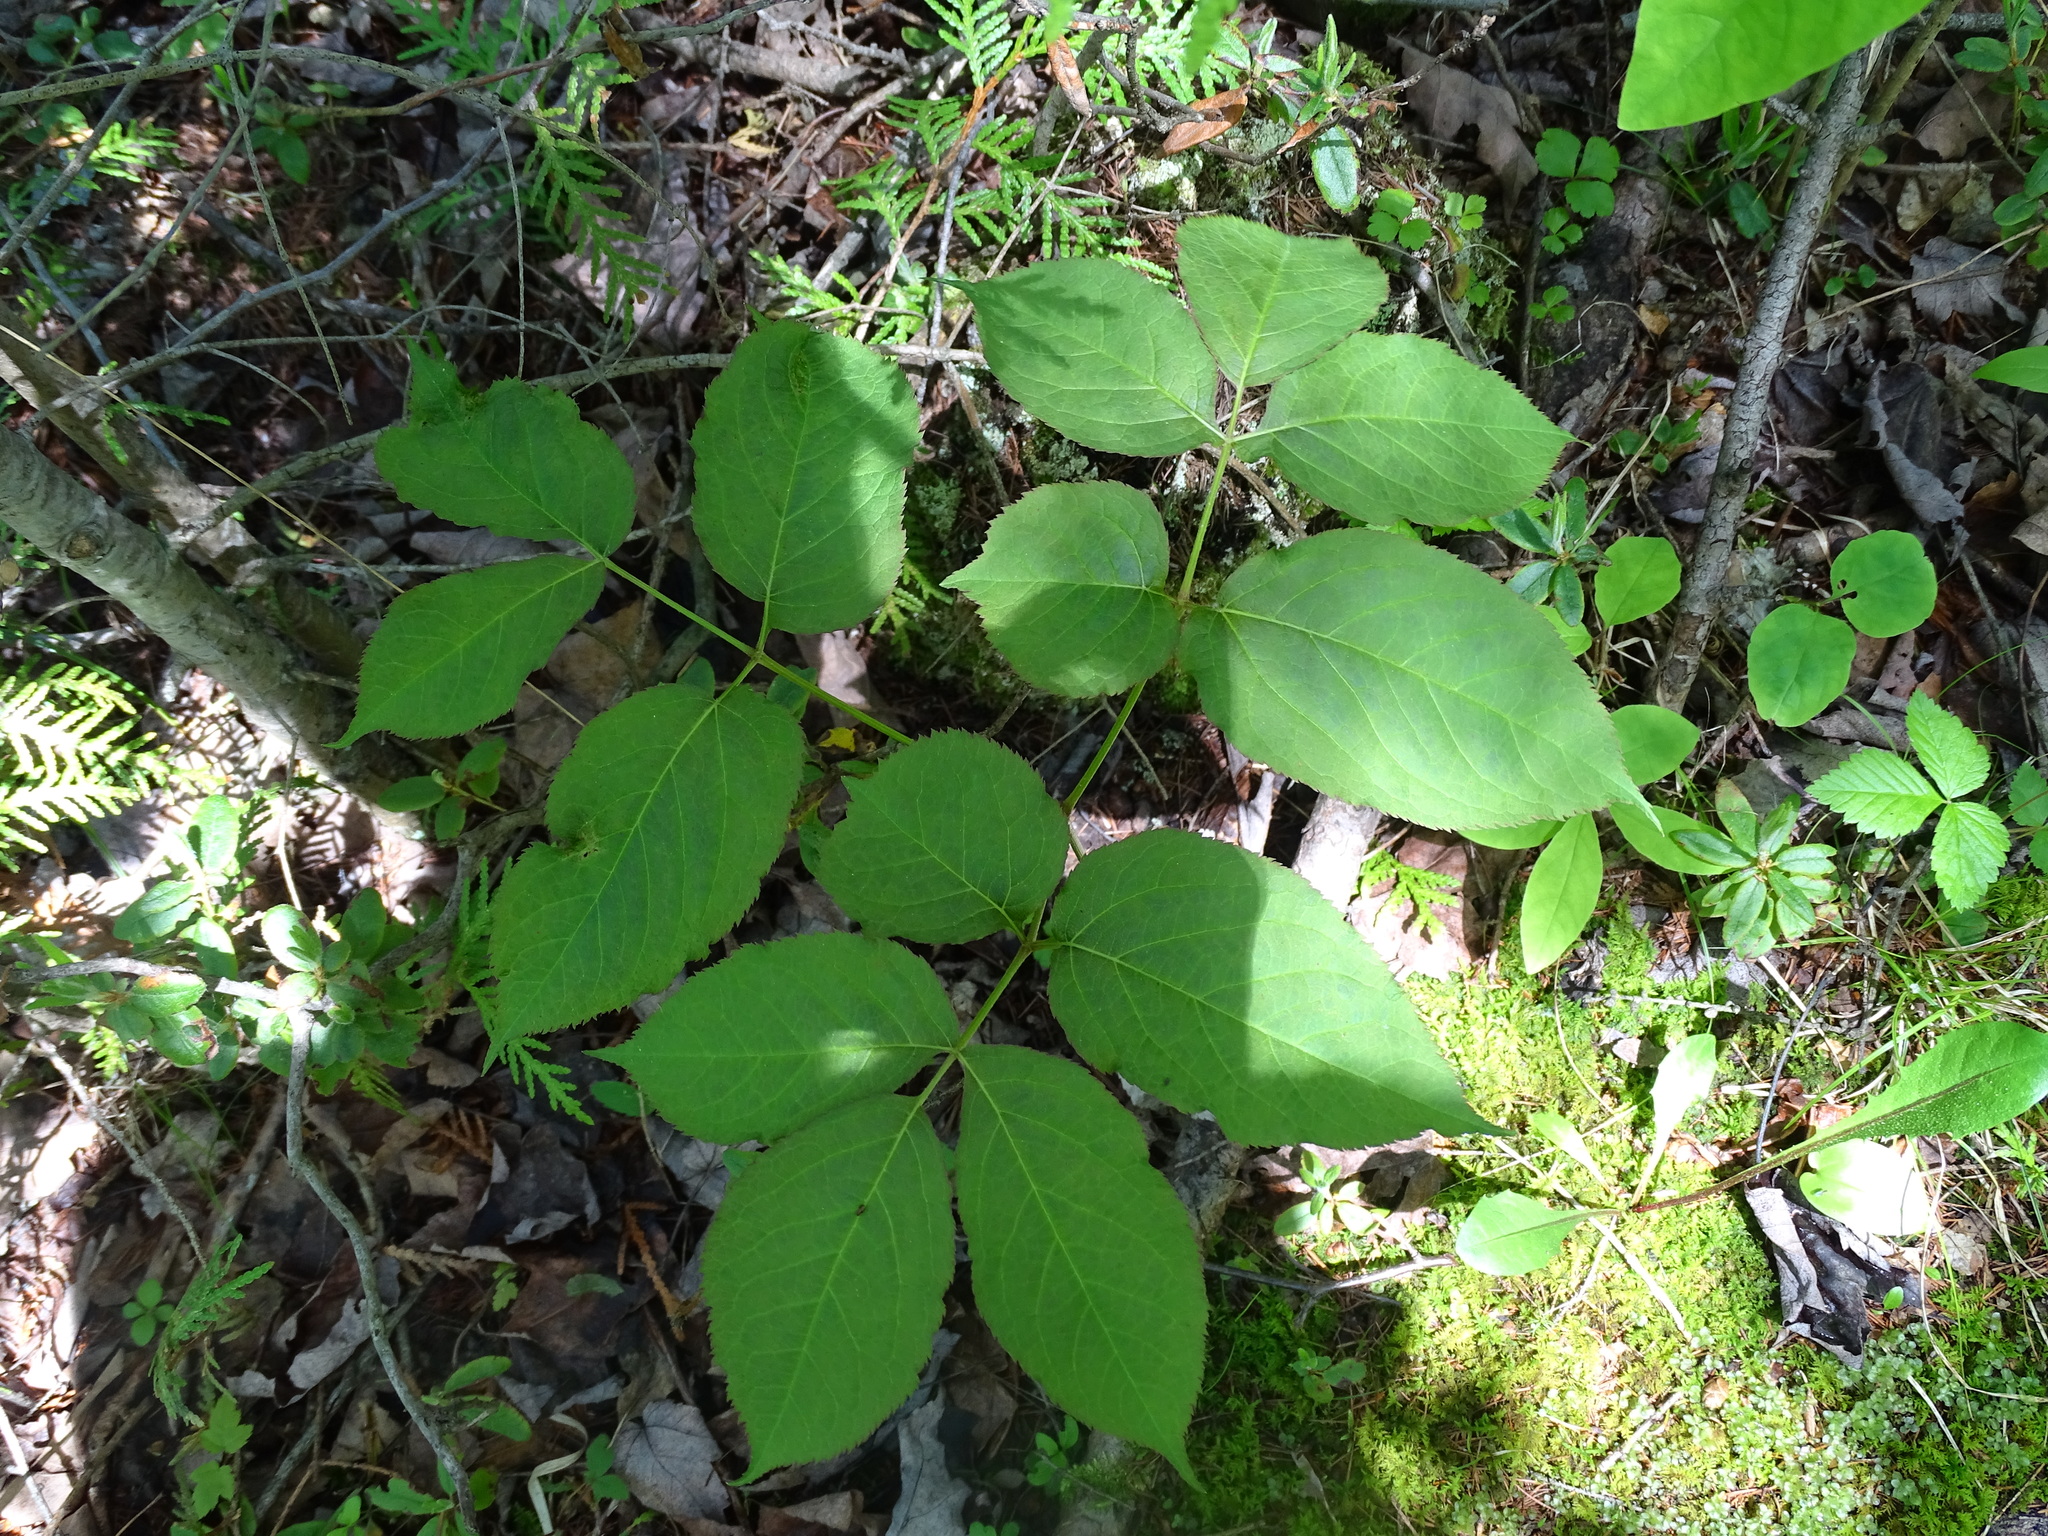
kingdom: Plantae
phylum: Tracheophyta
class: Magnoliopsida
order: Apiales
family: Araliaceae
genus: Aralia
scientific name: Aralia nudicaulis
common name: Wild sarsaparilla
